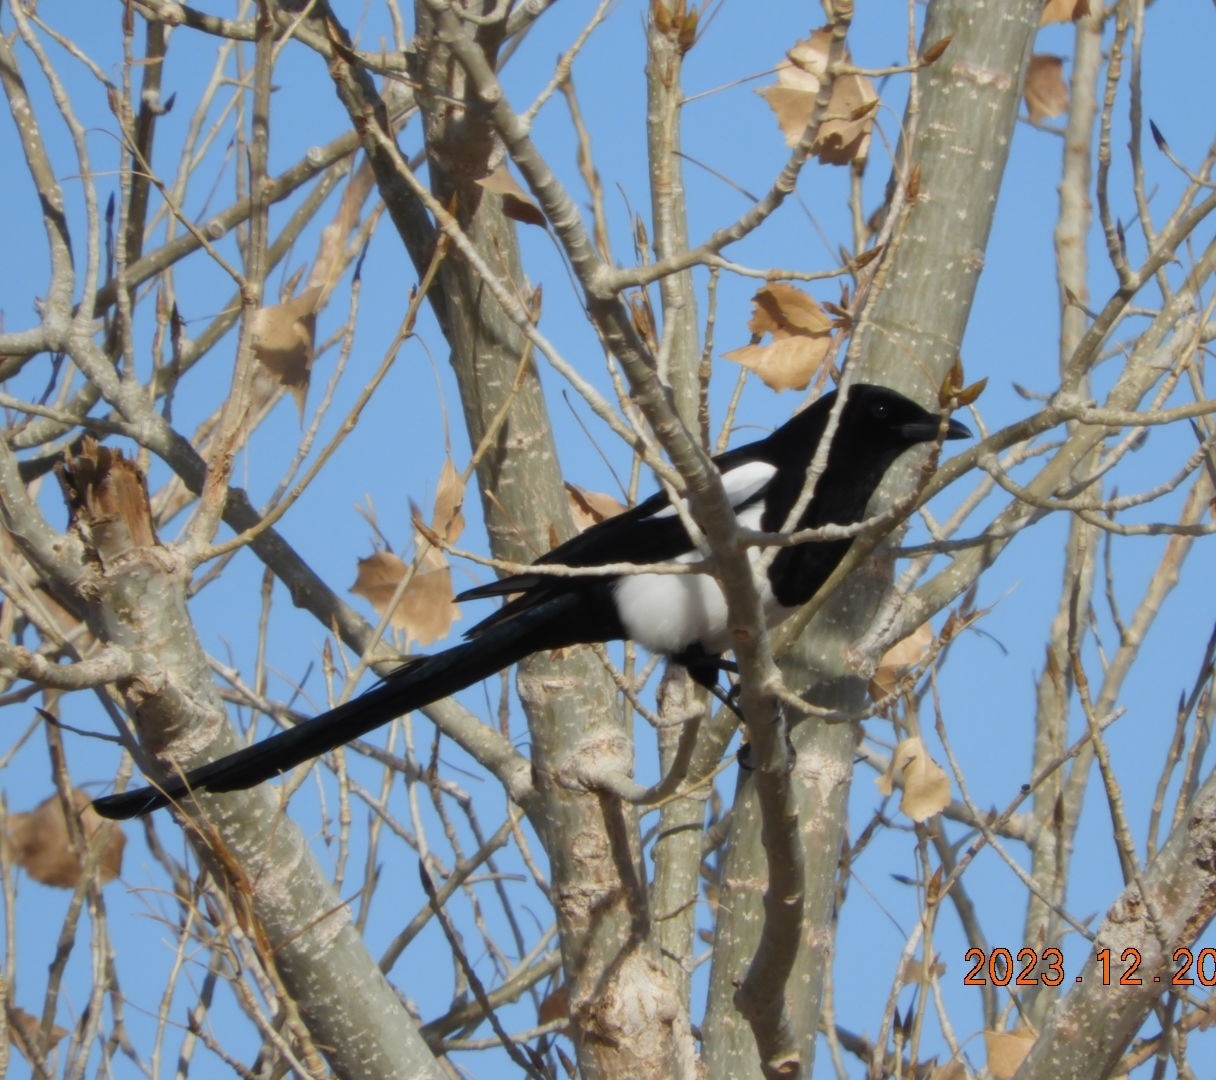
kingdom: Animalia
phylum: Chordata
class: Aves
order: Passeriformes
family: Corvidae
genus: Pica
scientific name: Pica hudsonia
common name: Black-billed magpie
